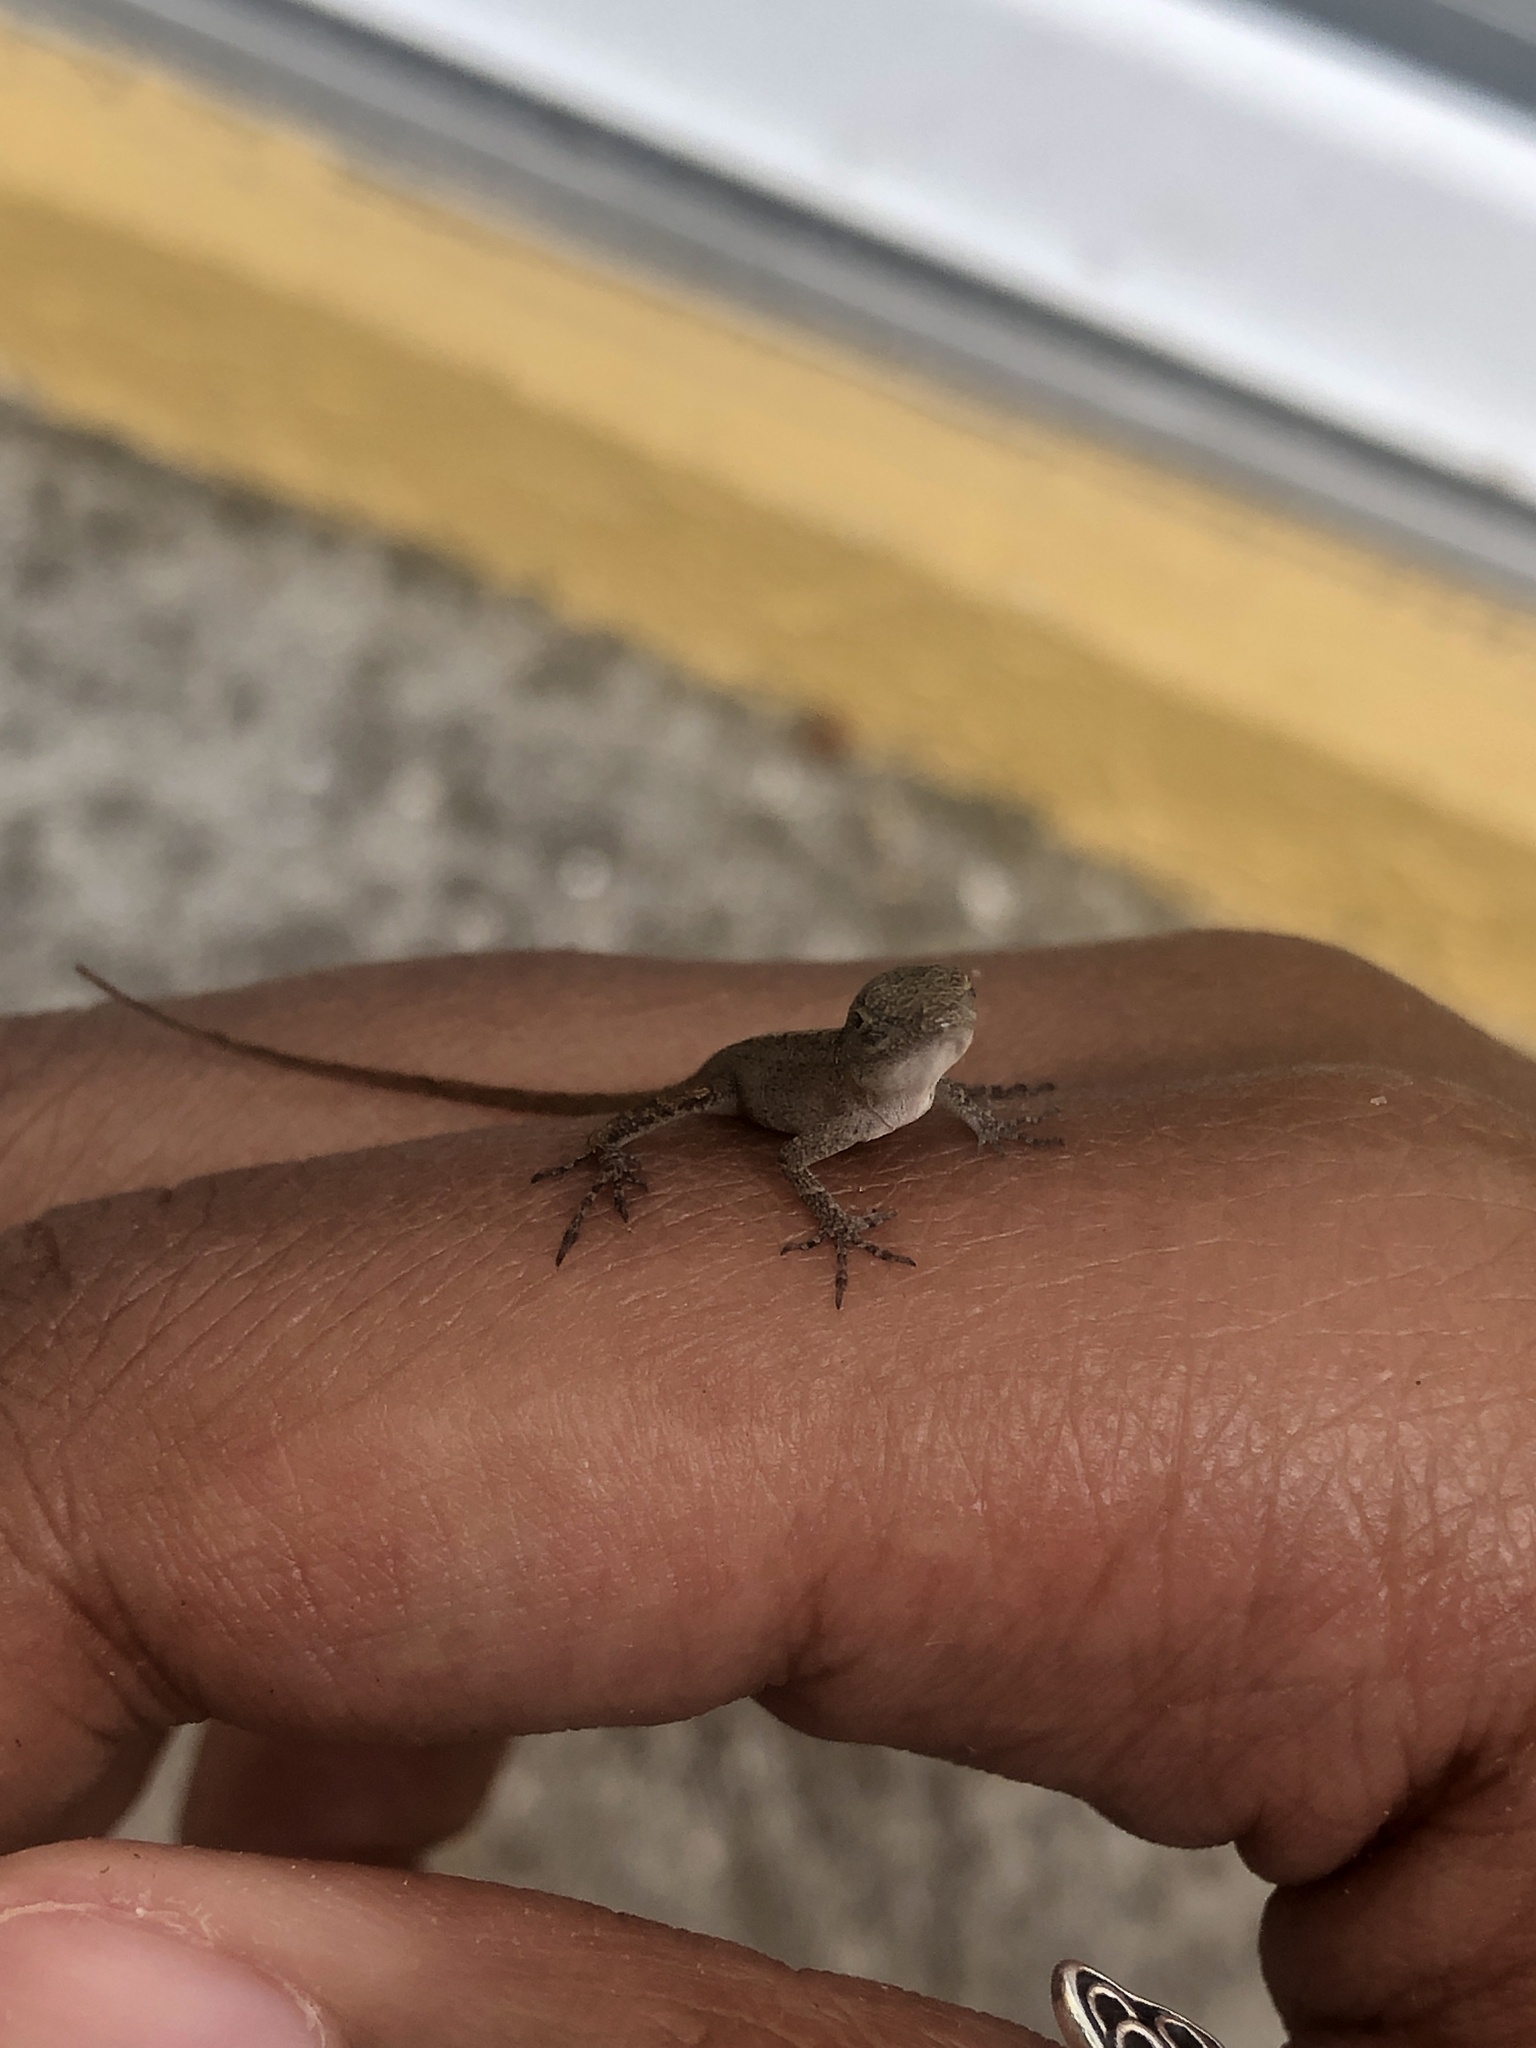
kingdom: Animalia
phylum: Chordata
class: Squamata
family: Dactyloidae
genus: Anolis
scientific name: Anolis sagrei
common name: Brown anole
